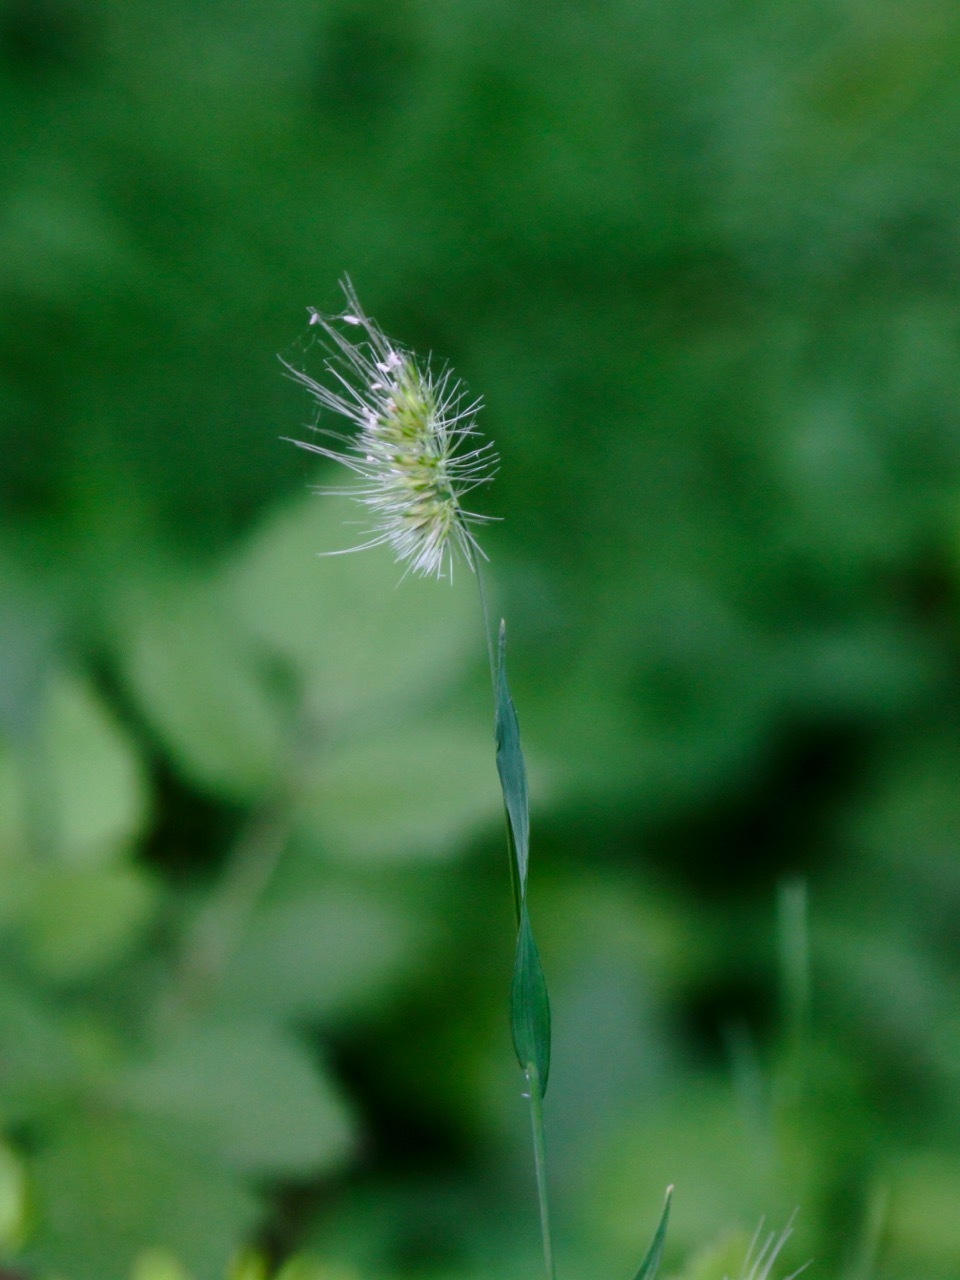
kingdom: Plantae
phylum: Tracheophyta
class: Liliopsida
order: Poales
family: Poaceae
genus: Cynosurus
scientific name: Cynosurus echinatus
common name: Rough dog's-tail
